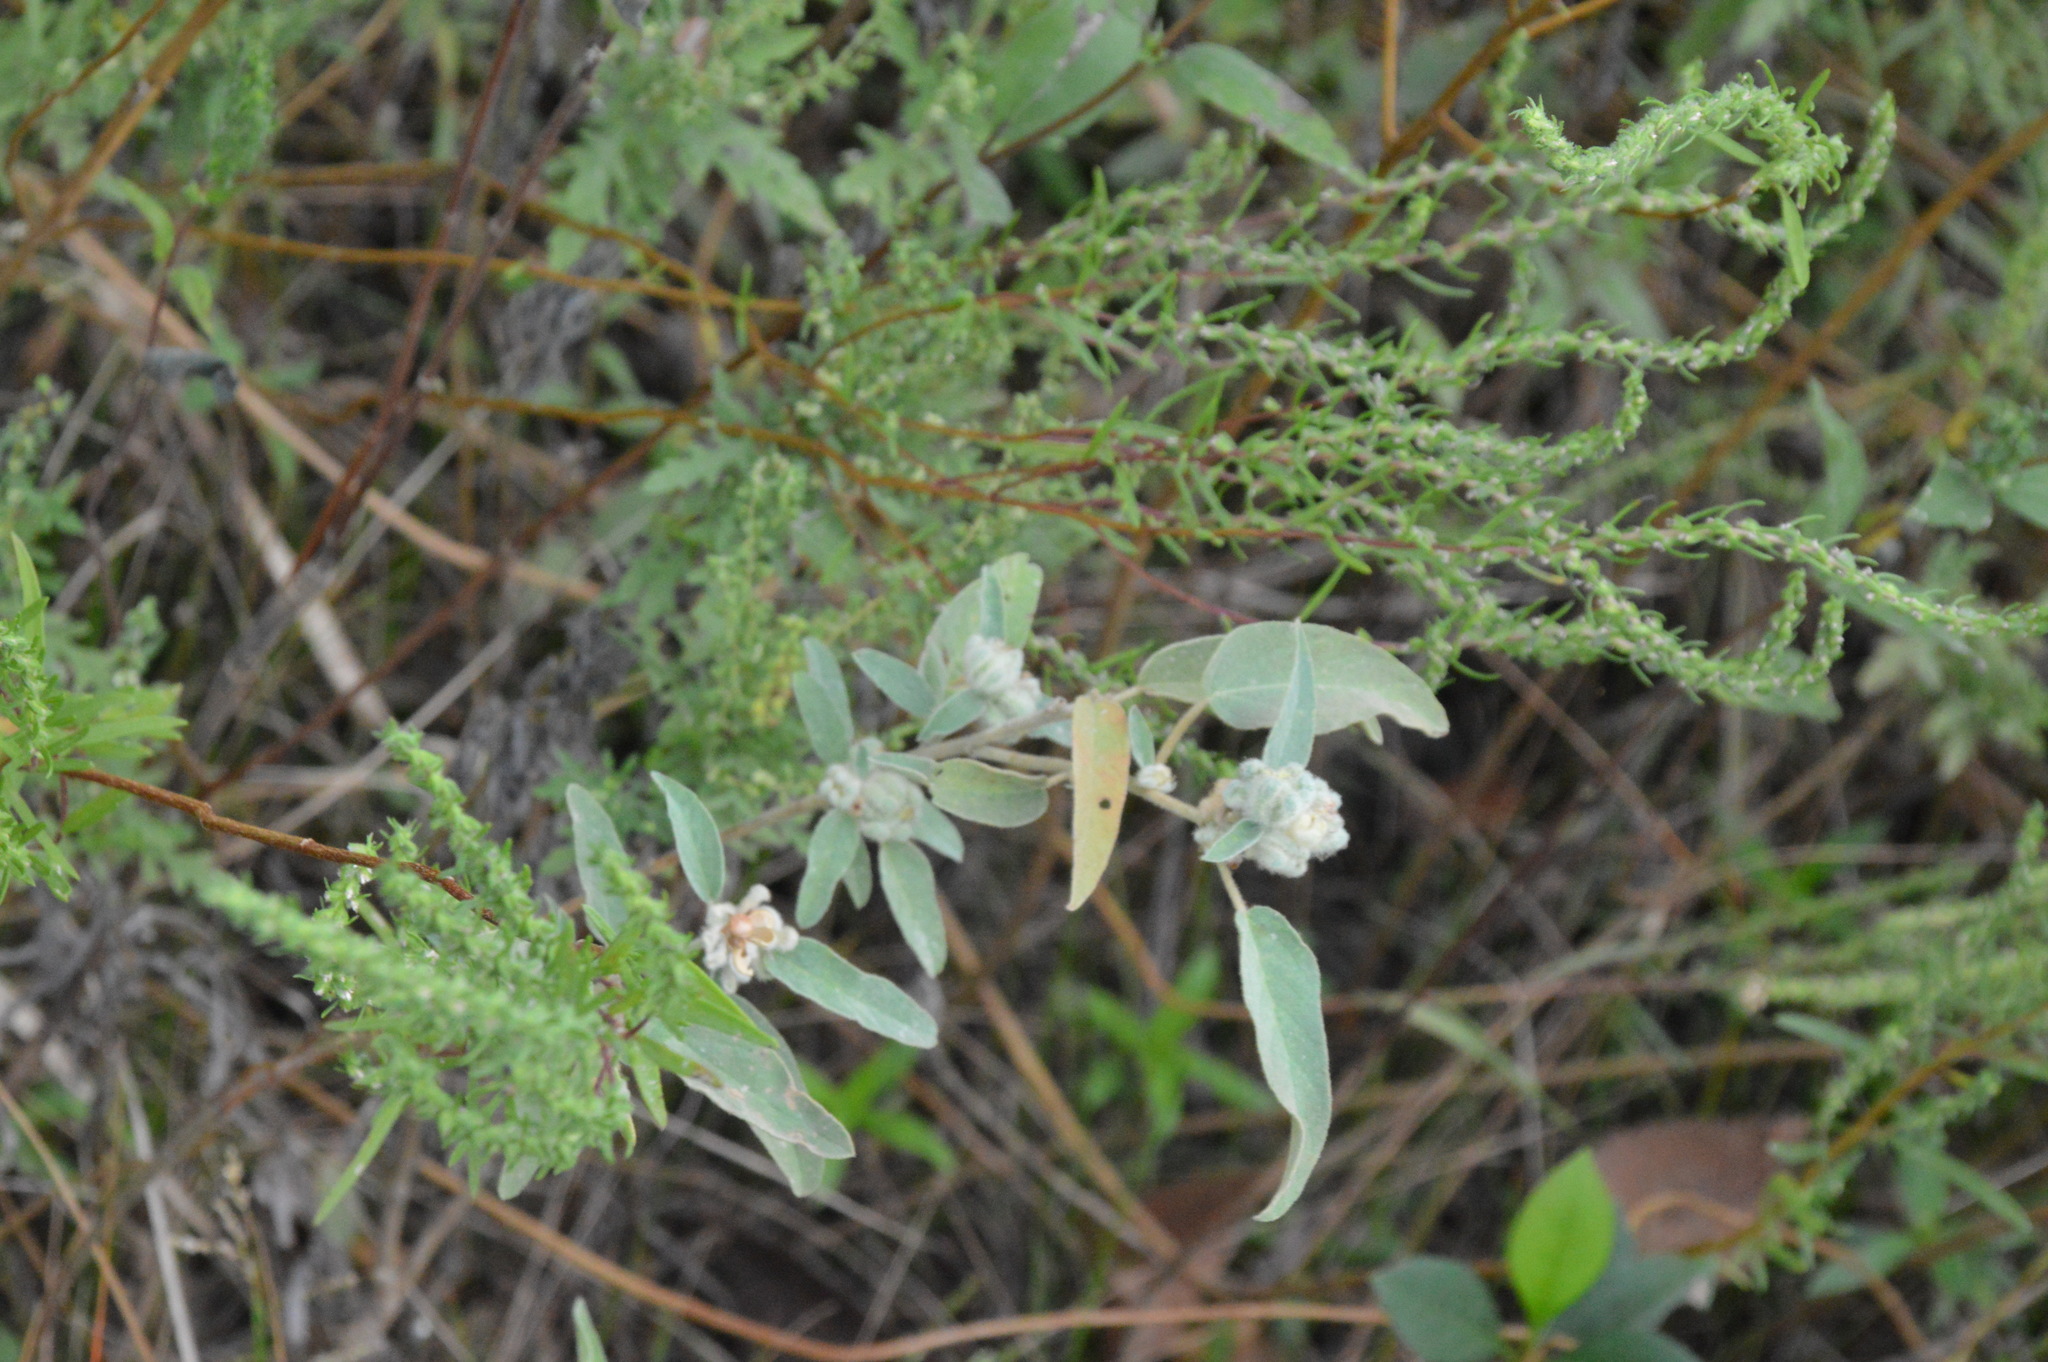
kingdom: Plantae
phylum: Tracheophyta
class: Magnoliopsida
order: Malpighiales
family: Euphorbiaceae
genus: Croton
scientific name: Croton lindheimeri
